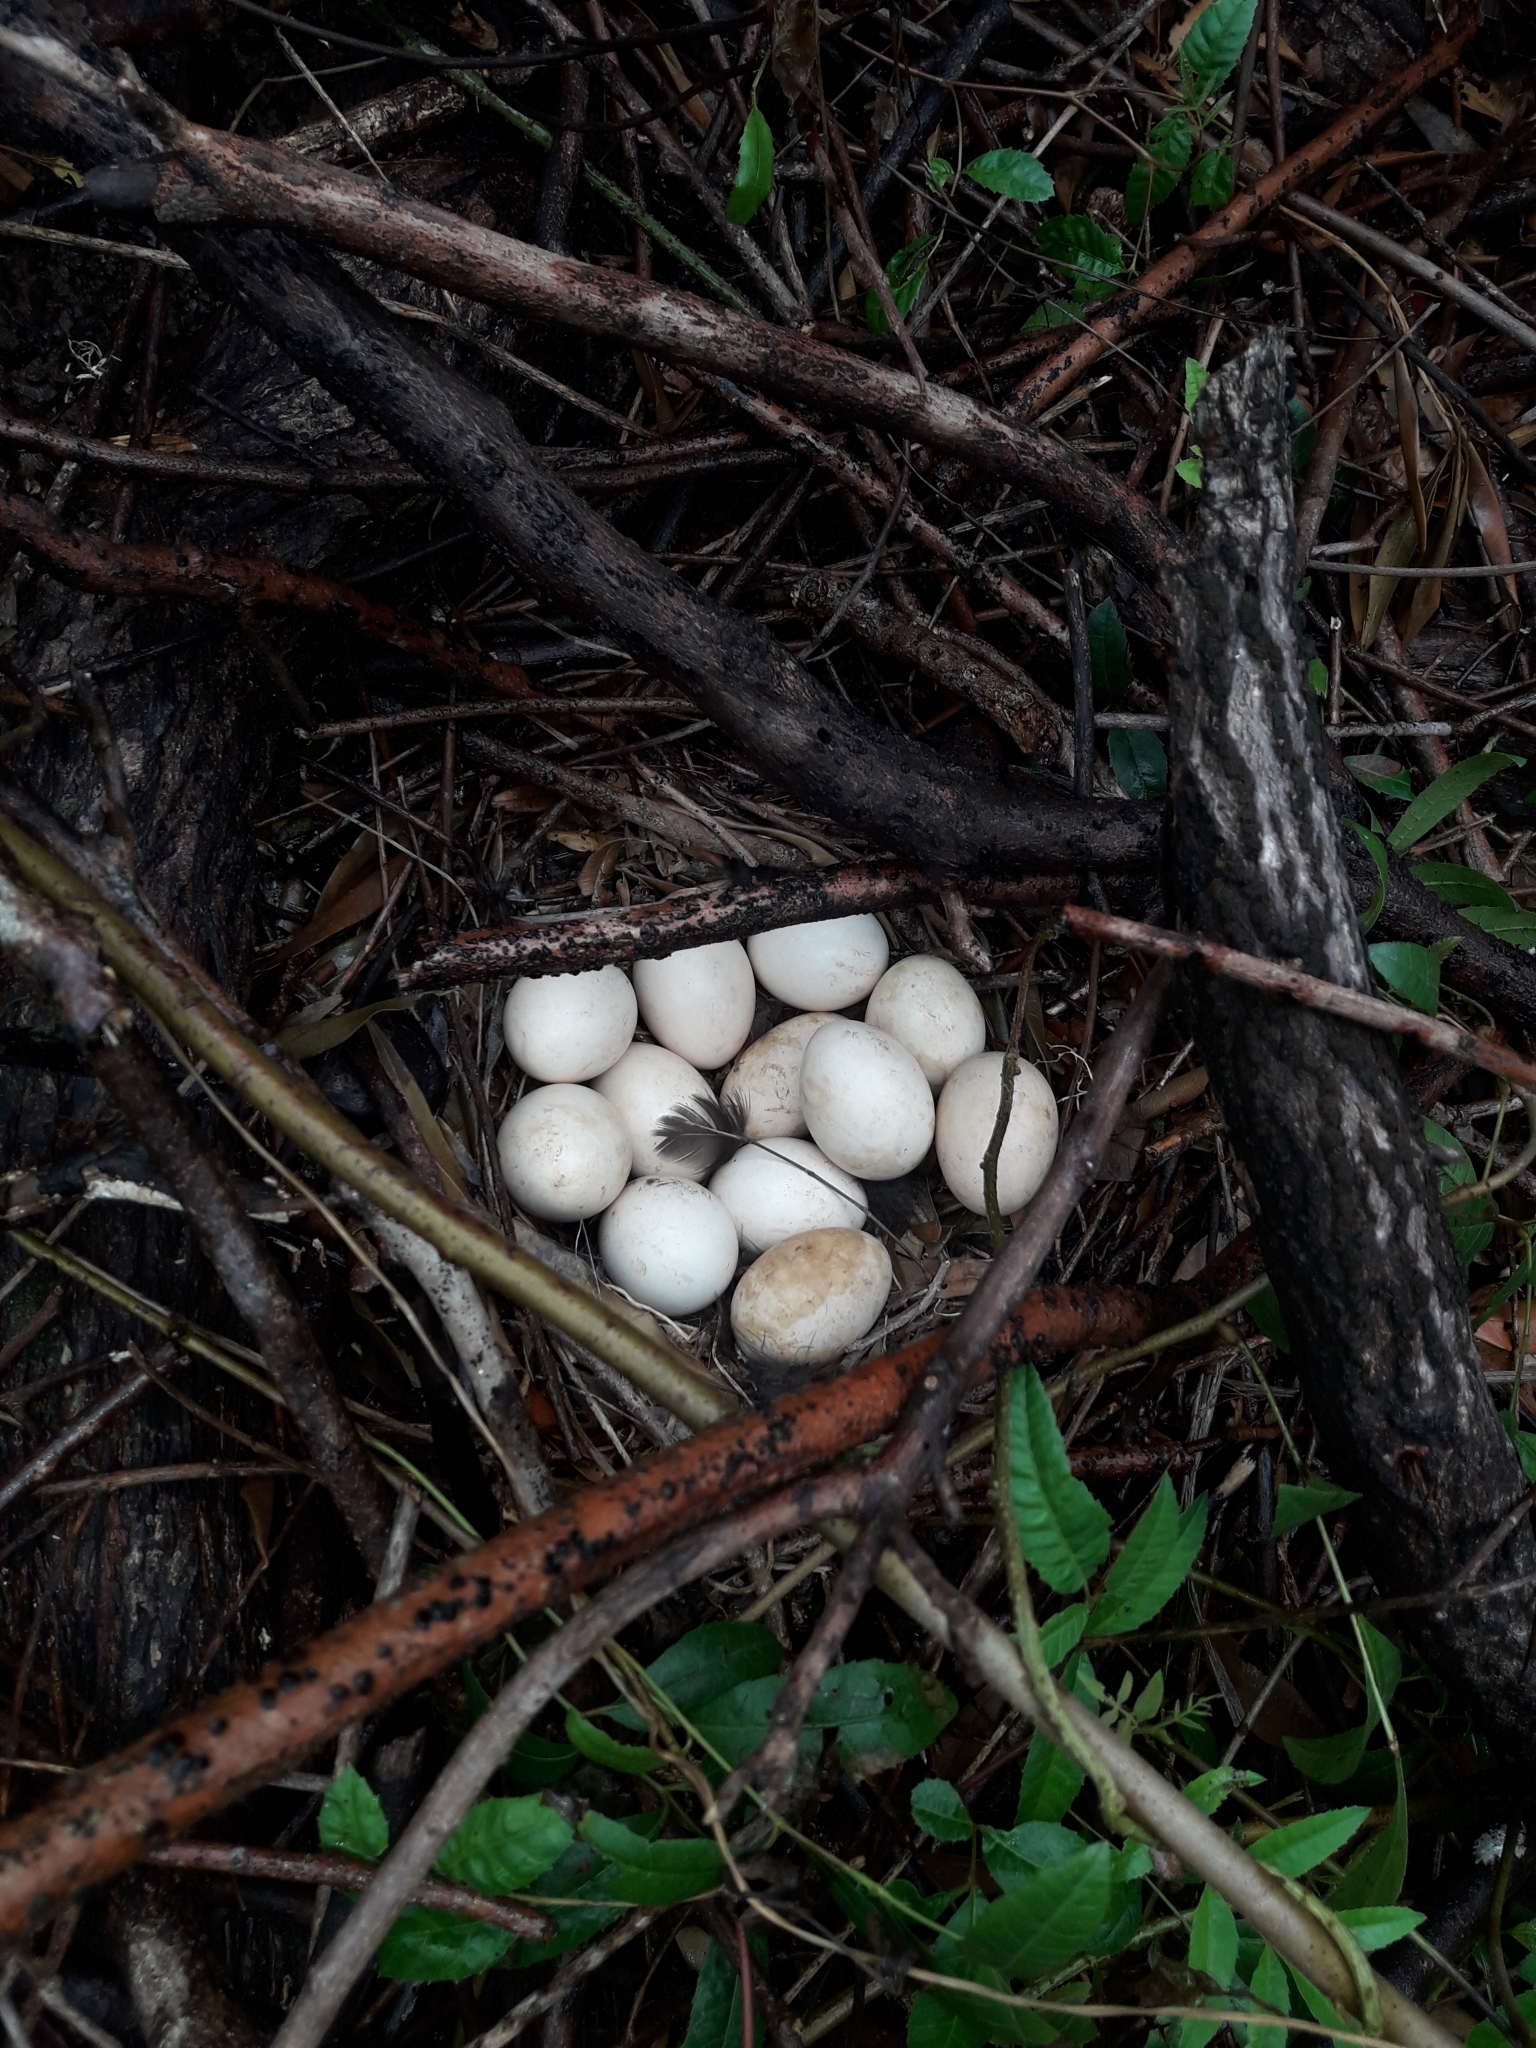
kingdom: Animalia
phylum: Chordata
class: Aves
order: Galliformes
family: Phasianidae
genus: Gallus
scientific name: Gallus gallus
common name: Red junglefowl
